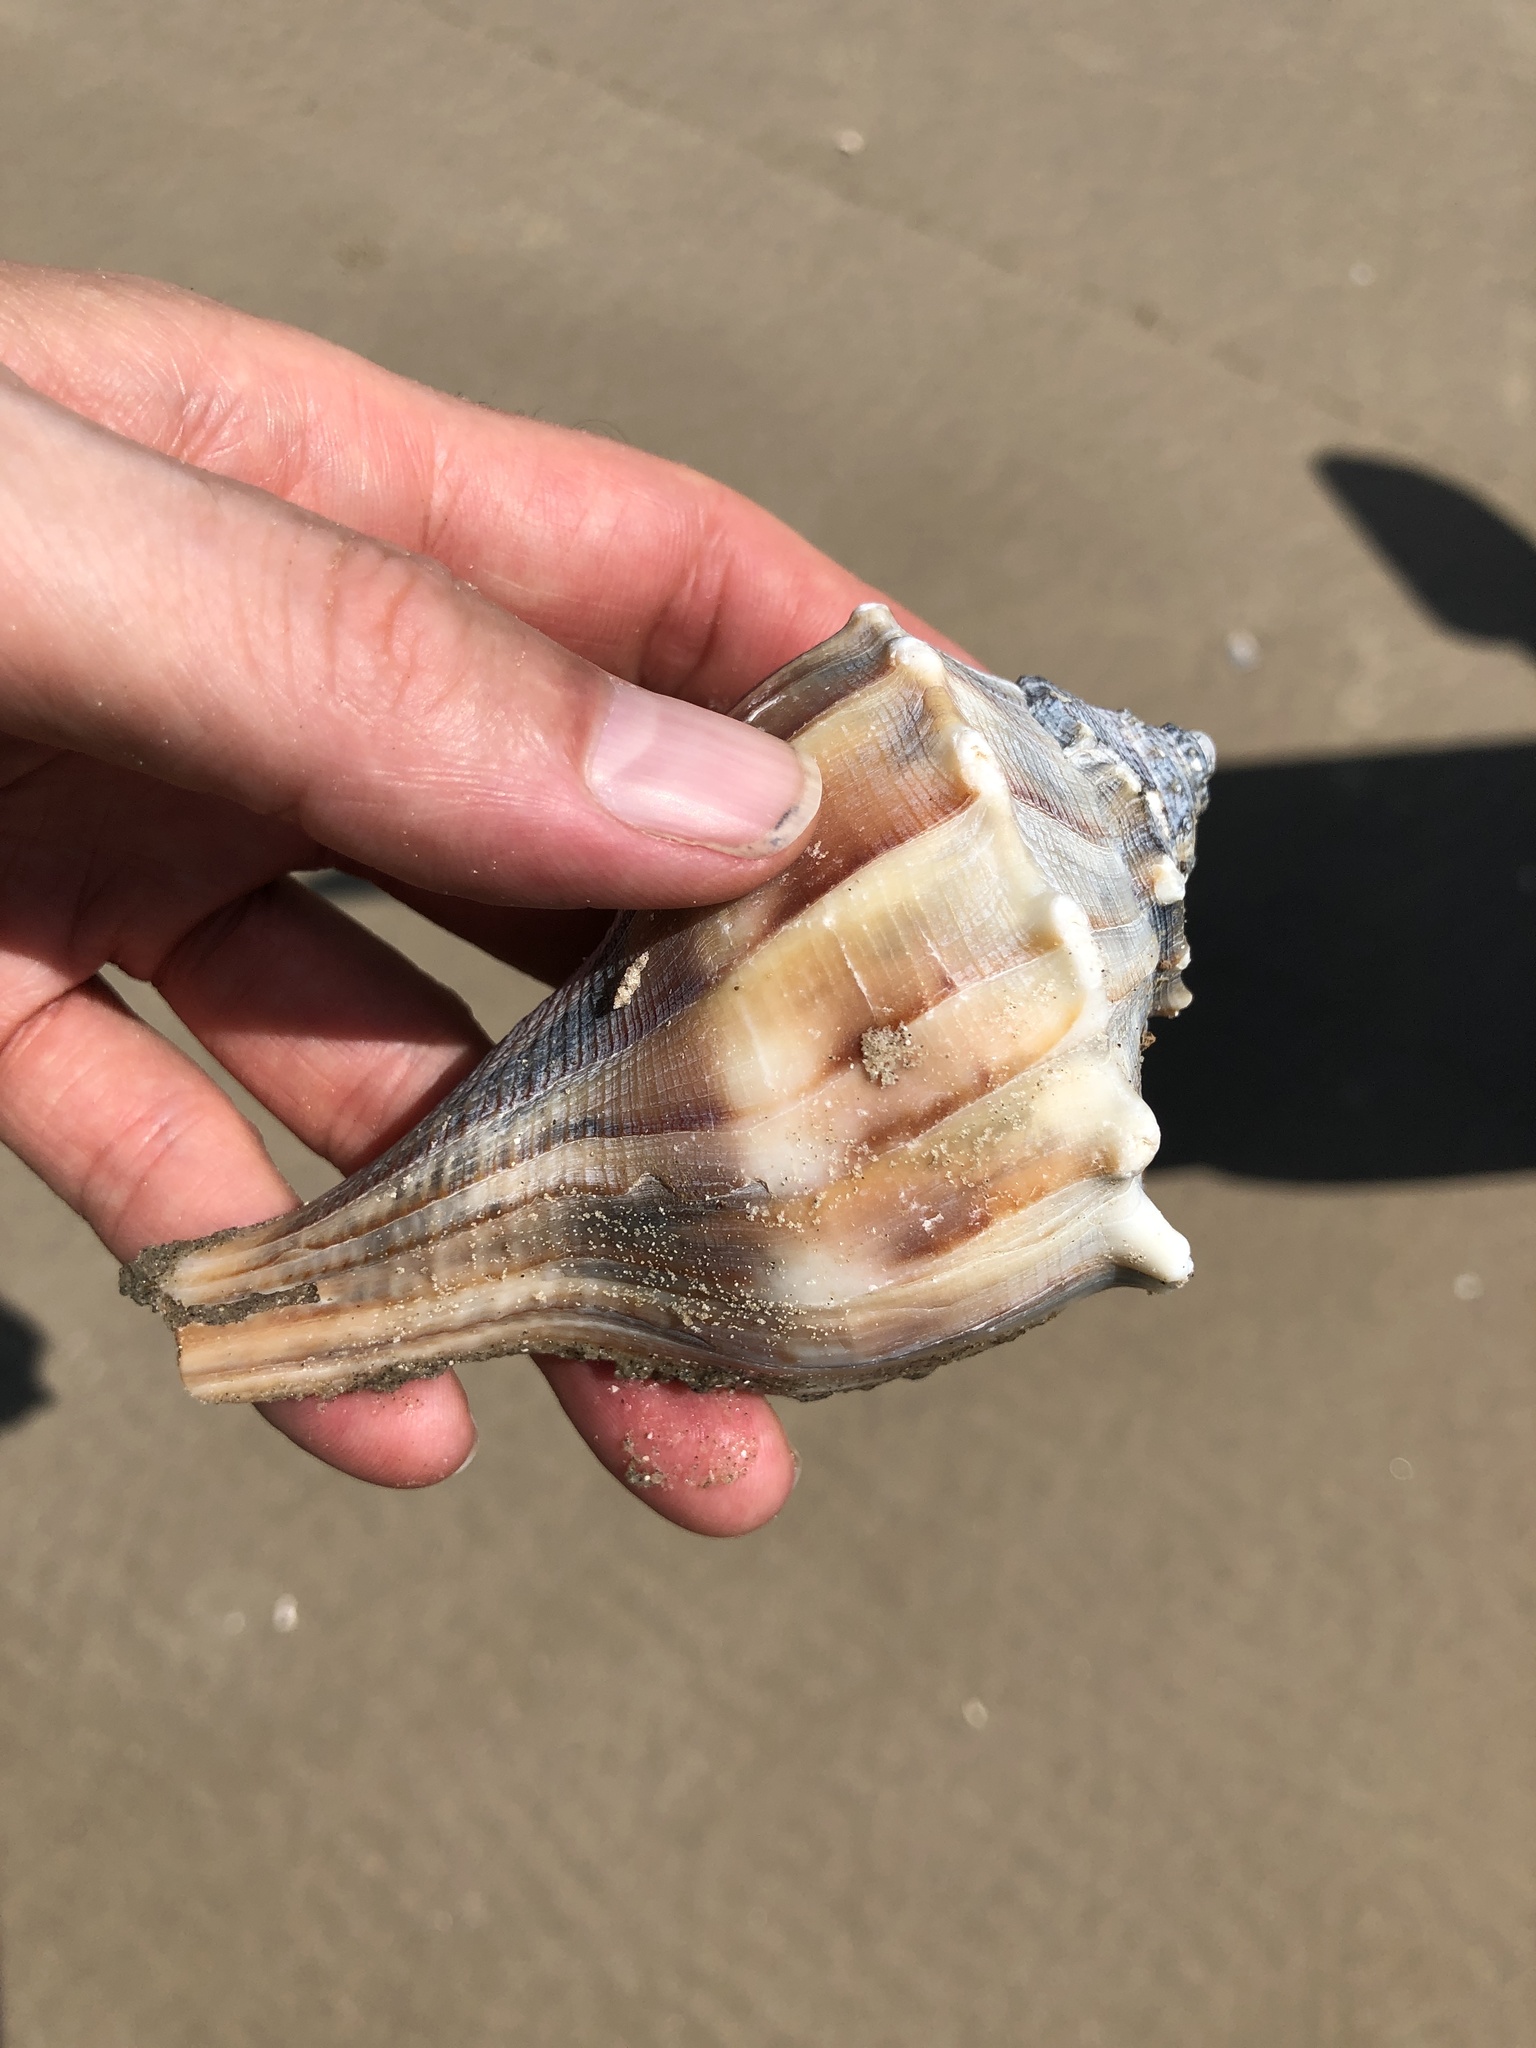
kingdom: Animalia
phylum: Mollusca
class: Gastropoda
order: Neogastropoda
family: Busyconidae
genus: Sinistrofulgur
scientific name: Sinistrofulgur pulleyi
